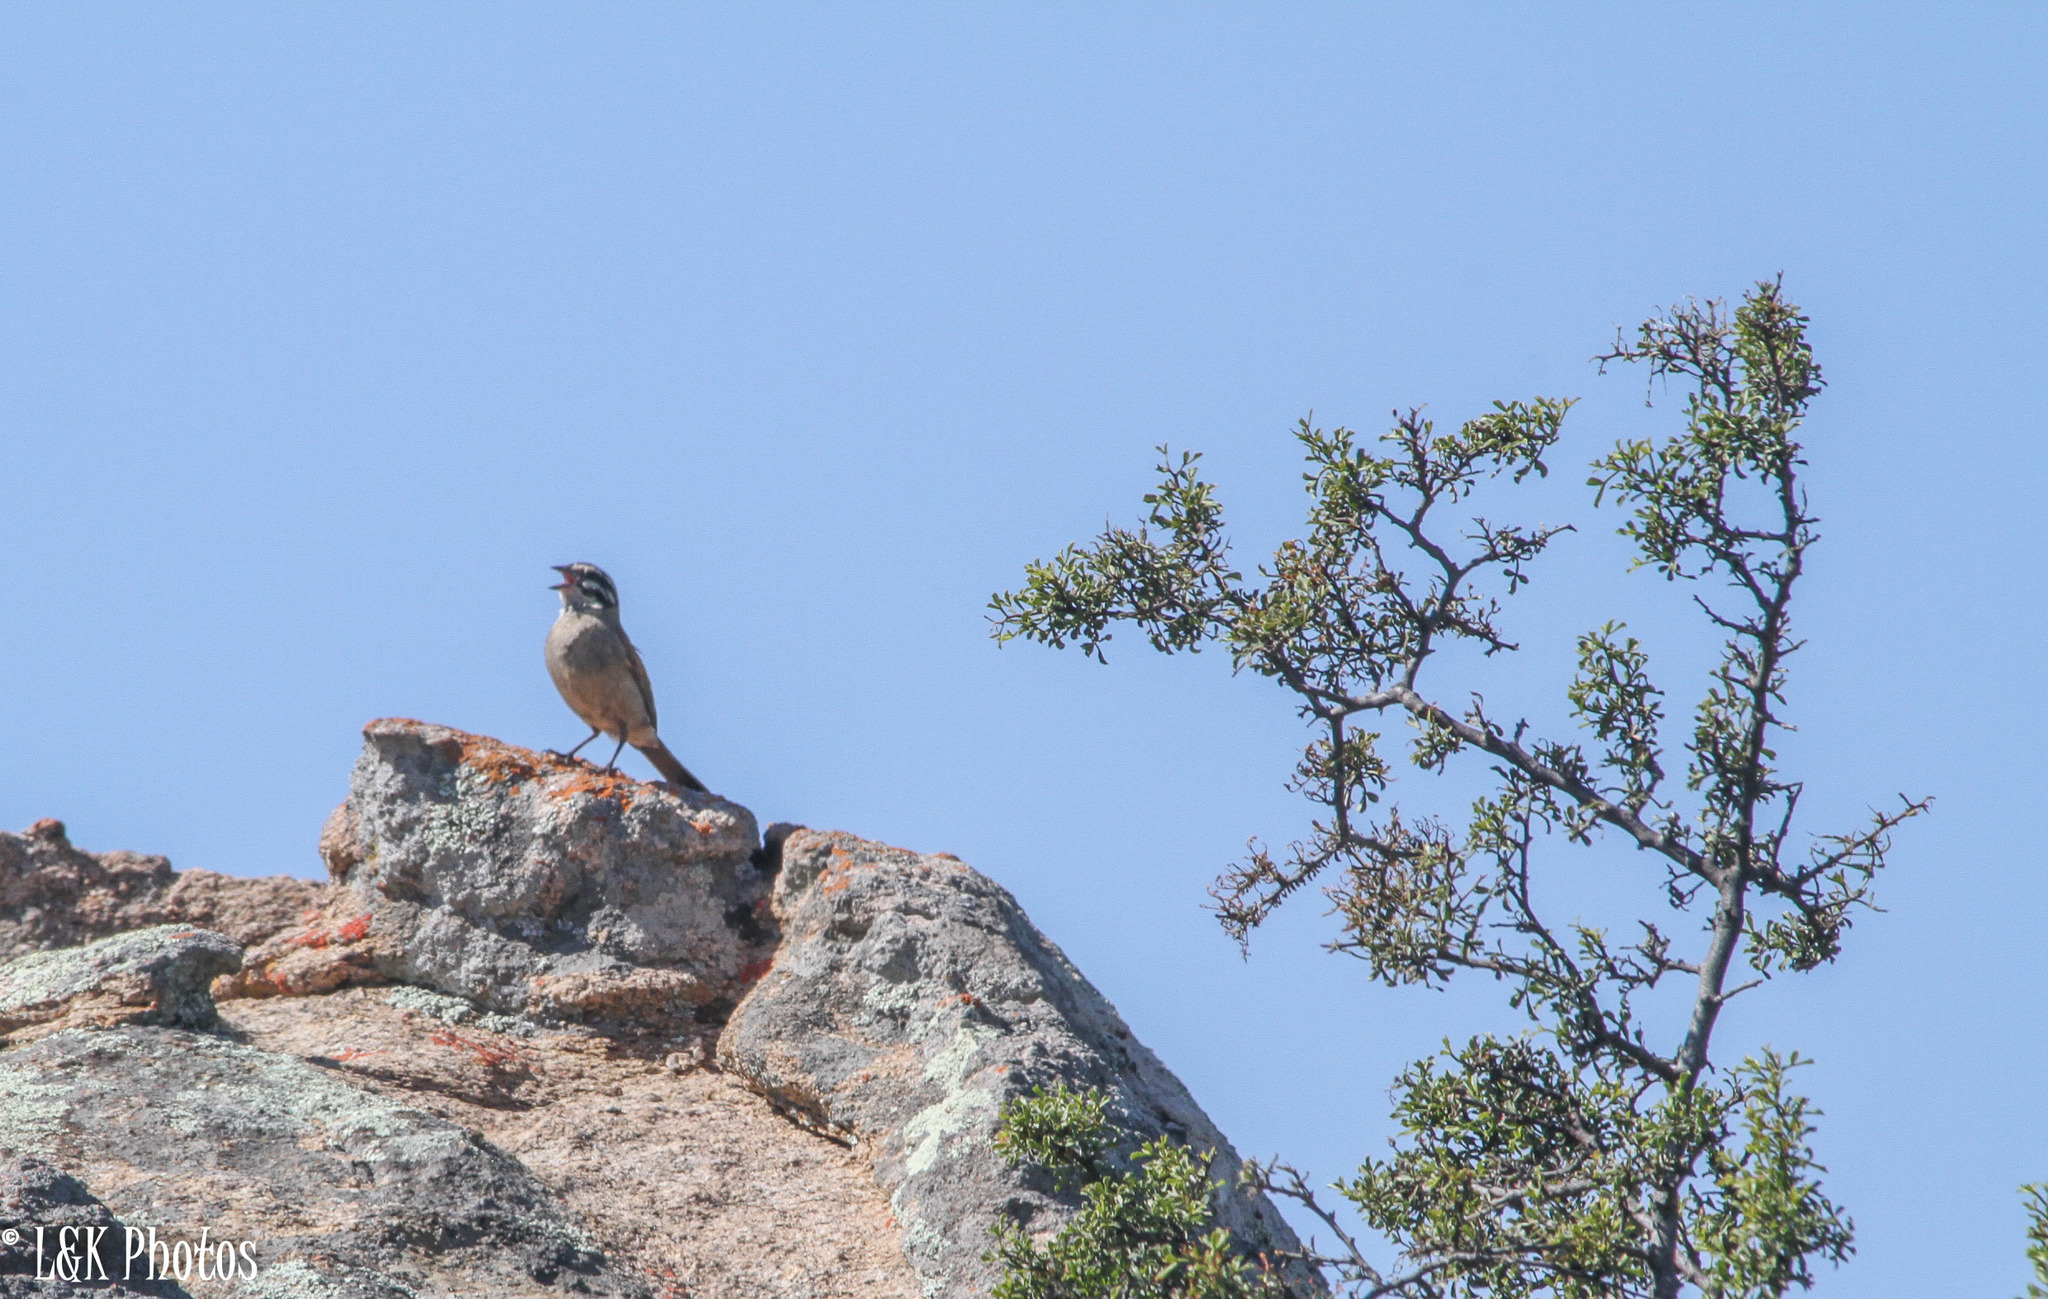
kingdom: Animalia
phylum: Chordata
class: Aves
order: Passeriformes
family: Emberizidae
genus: Emberiza
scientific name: Emberiza capensis
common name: Cape bunting
